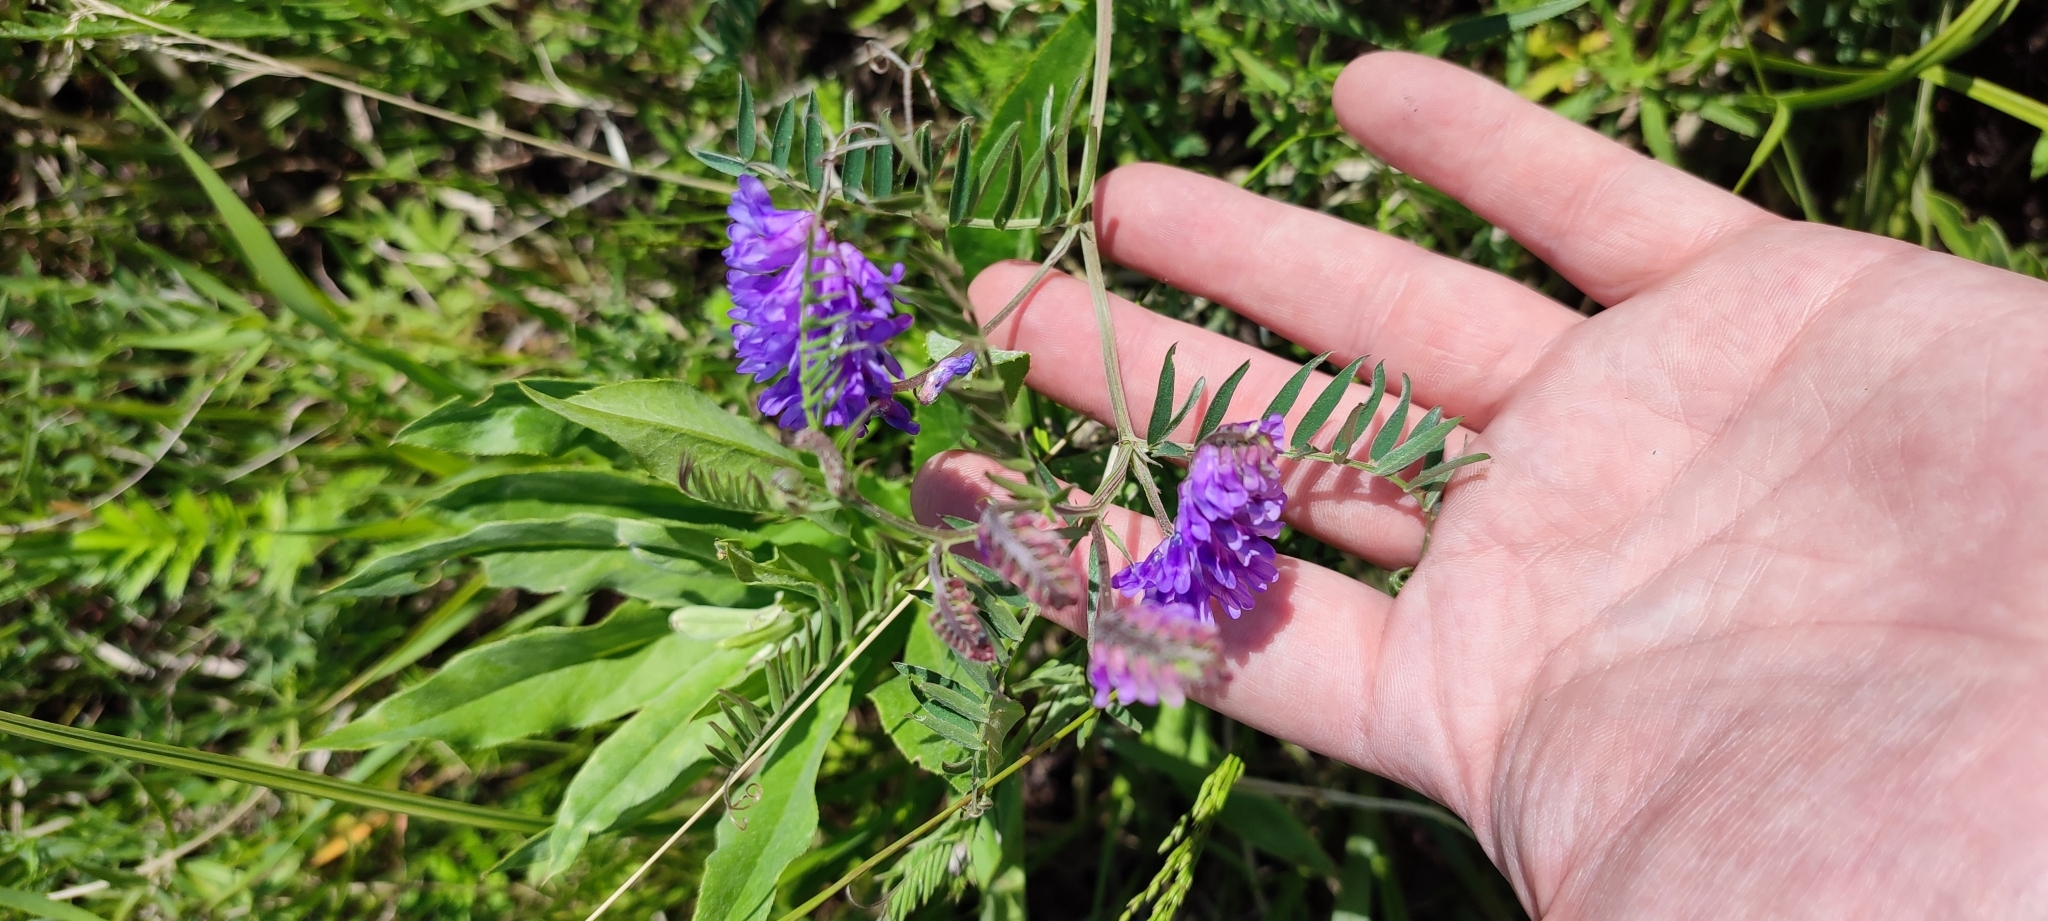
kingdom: Plantae
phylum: Tracheophyta
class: Magnoliopsida
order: Fabales
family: Fabaceae
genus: Vicia
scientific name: Vicia cracca
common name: Bird vetch
